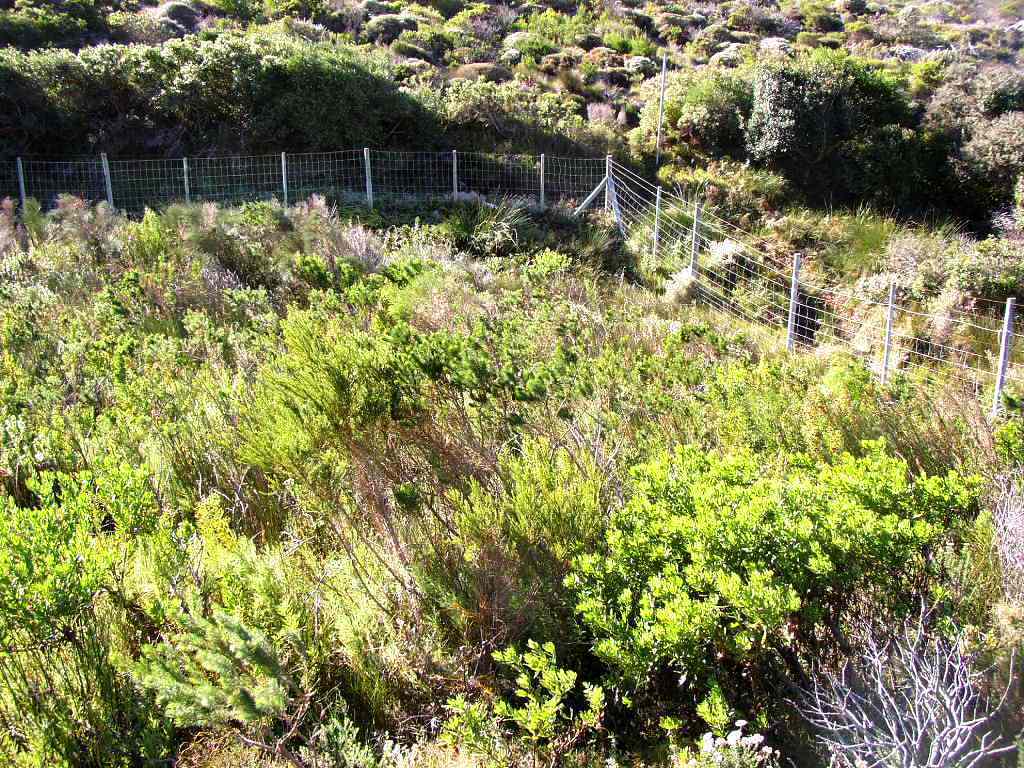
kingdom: Plantae
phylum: Tracheophyta
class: Magnoliopsida
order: Proteales
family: Proteaceae
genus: Leucadendron
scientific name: Leucadendron macowanii
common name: Acacia-leaf conebush
